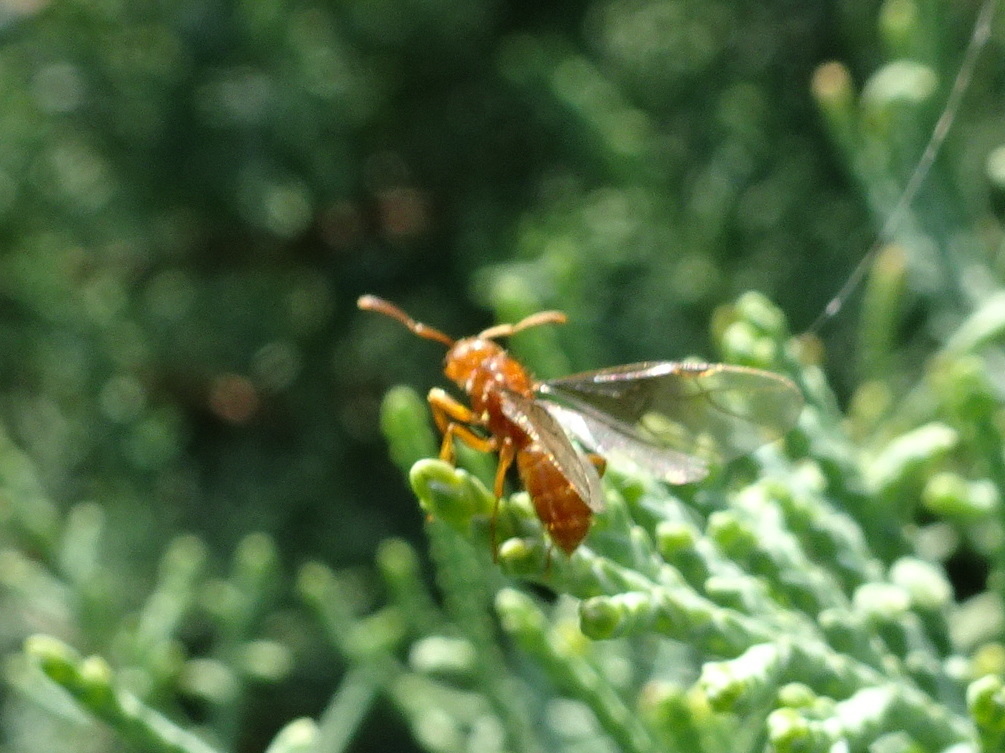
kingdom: Animalia
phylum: Arthropoda
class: Insecta
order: Hymenoptera
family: Formicidae
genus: Acanthomyops
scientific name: Acanthomyops interjectus
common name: Larger yellow ant
